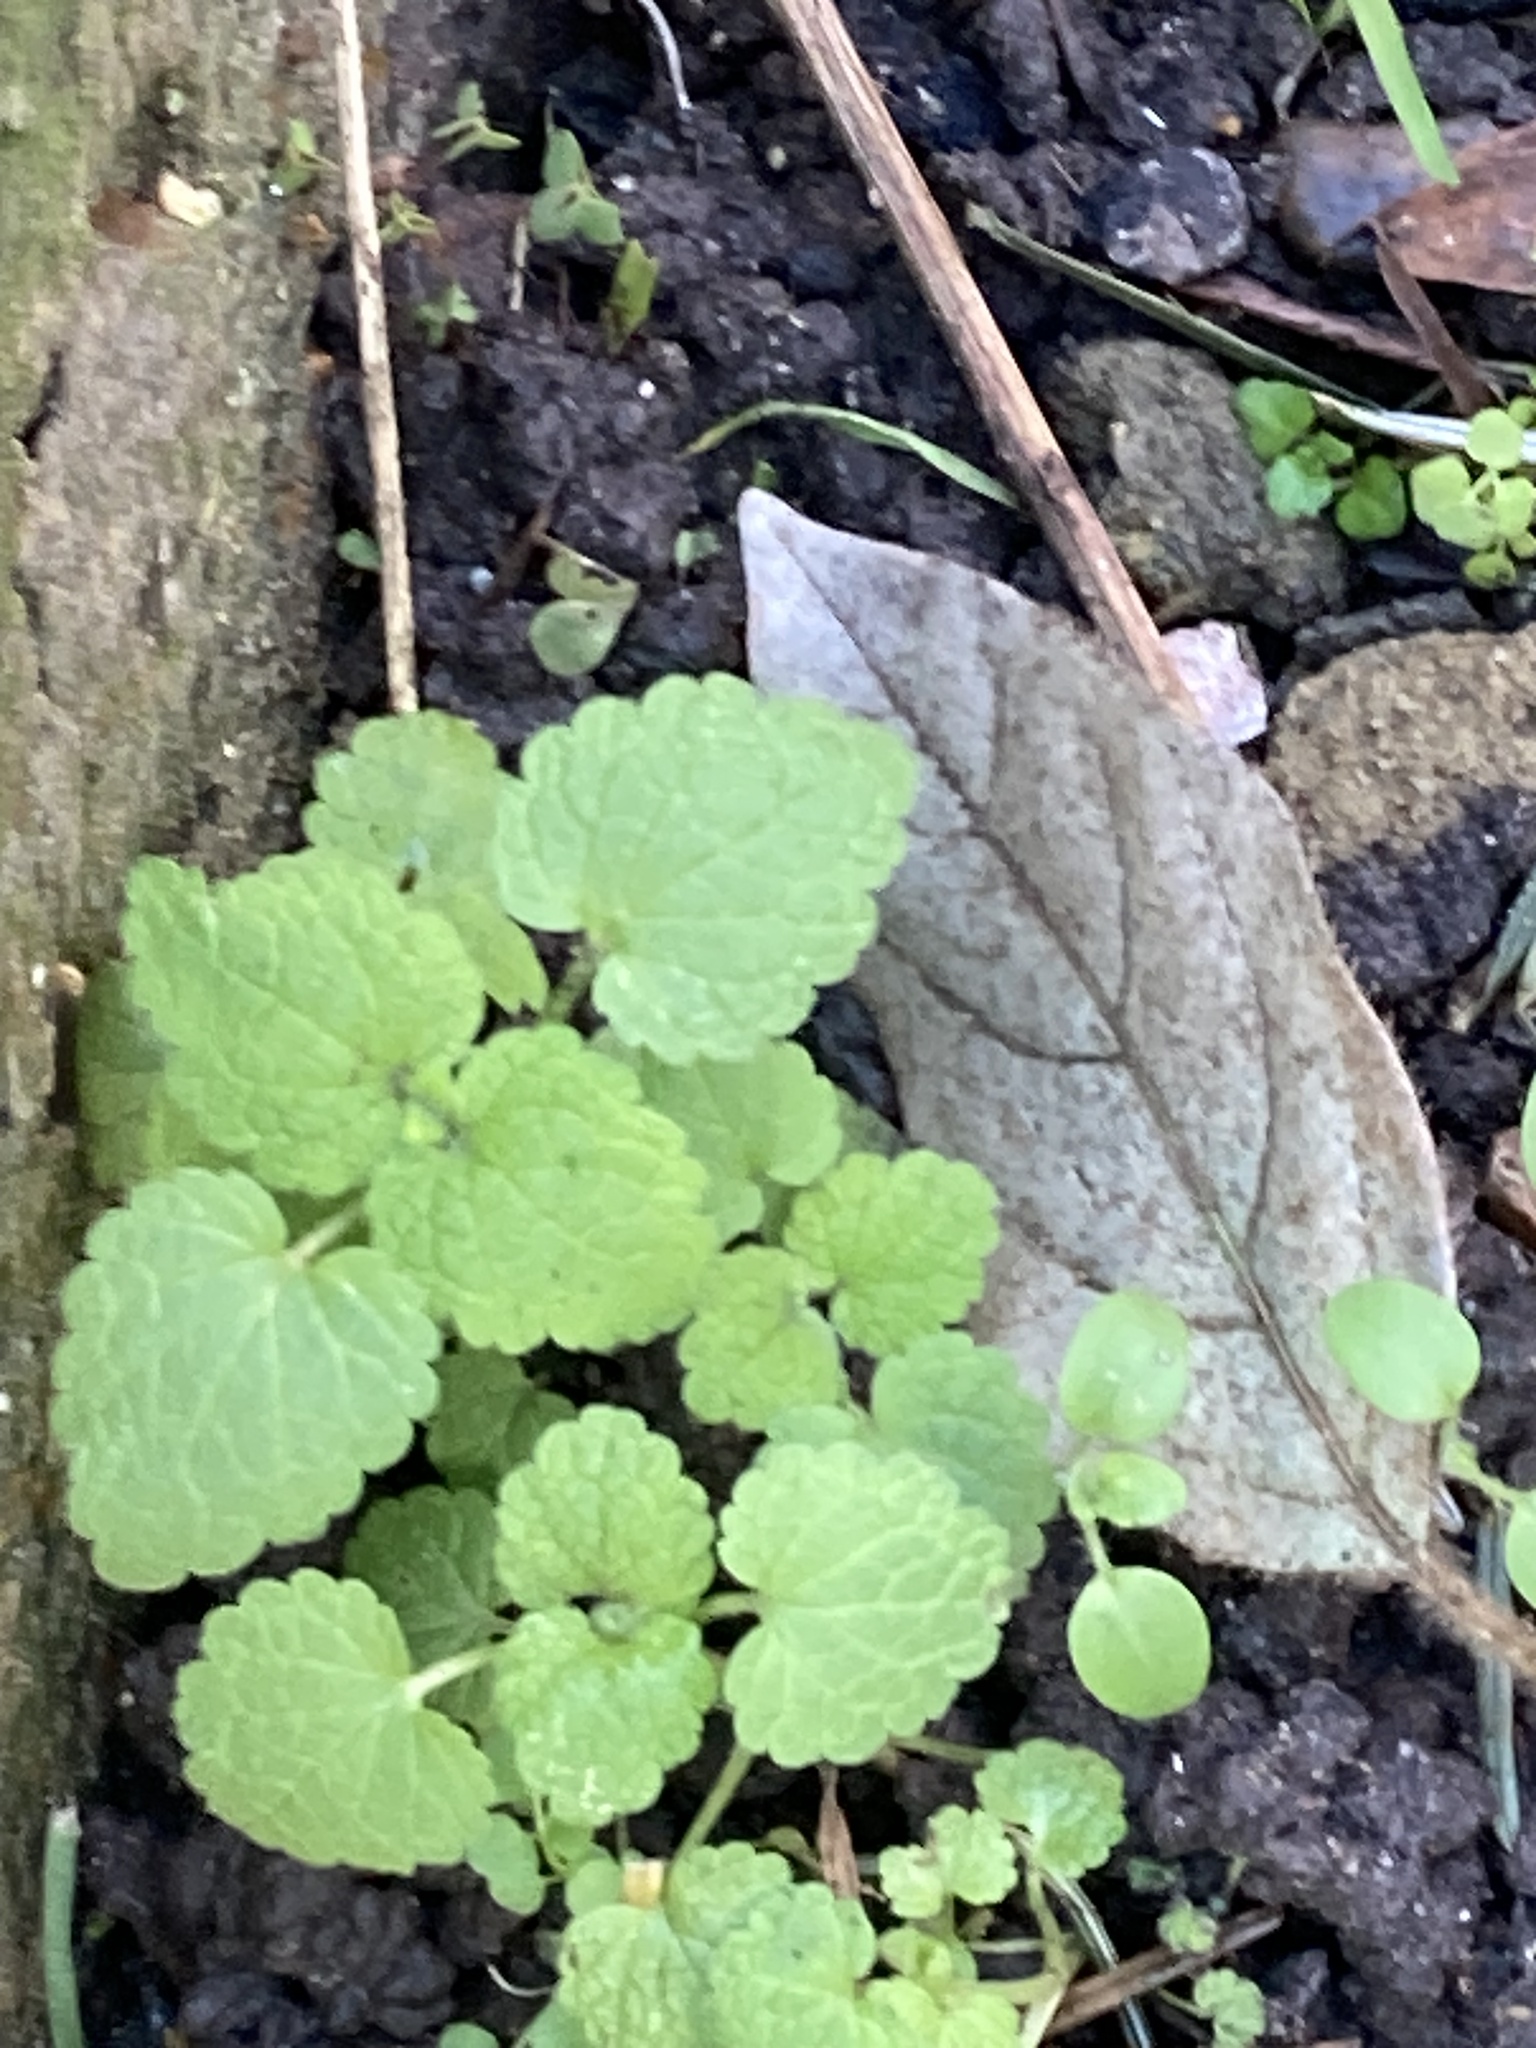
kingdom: Plantae
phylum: Tracheophyta
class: Magnoliopsida
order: Lamiales
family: Lamiaceae
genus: Lamium
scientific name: Lamium purpureum
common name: Red dead-nettle
